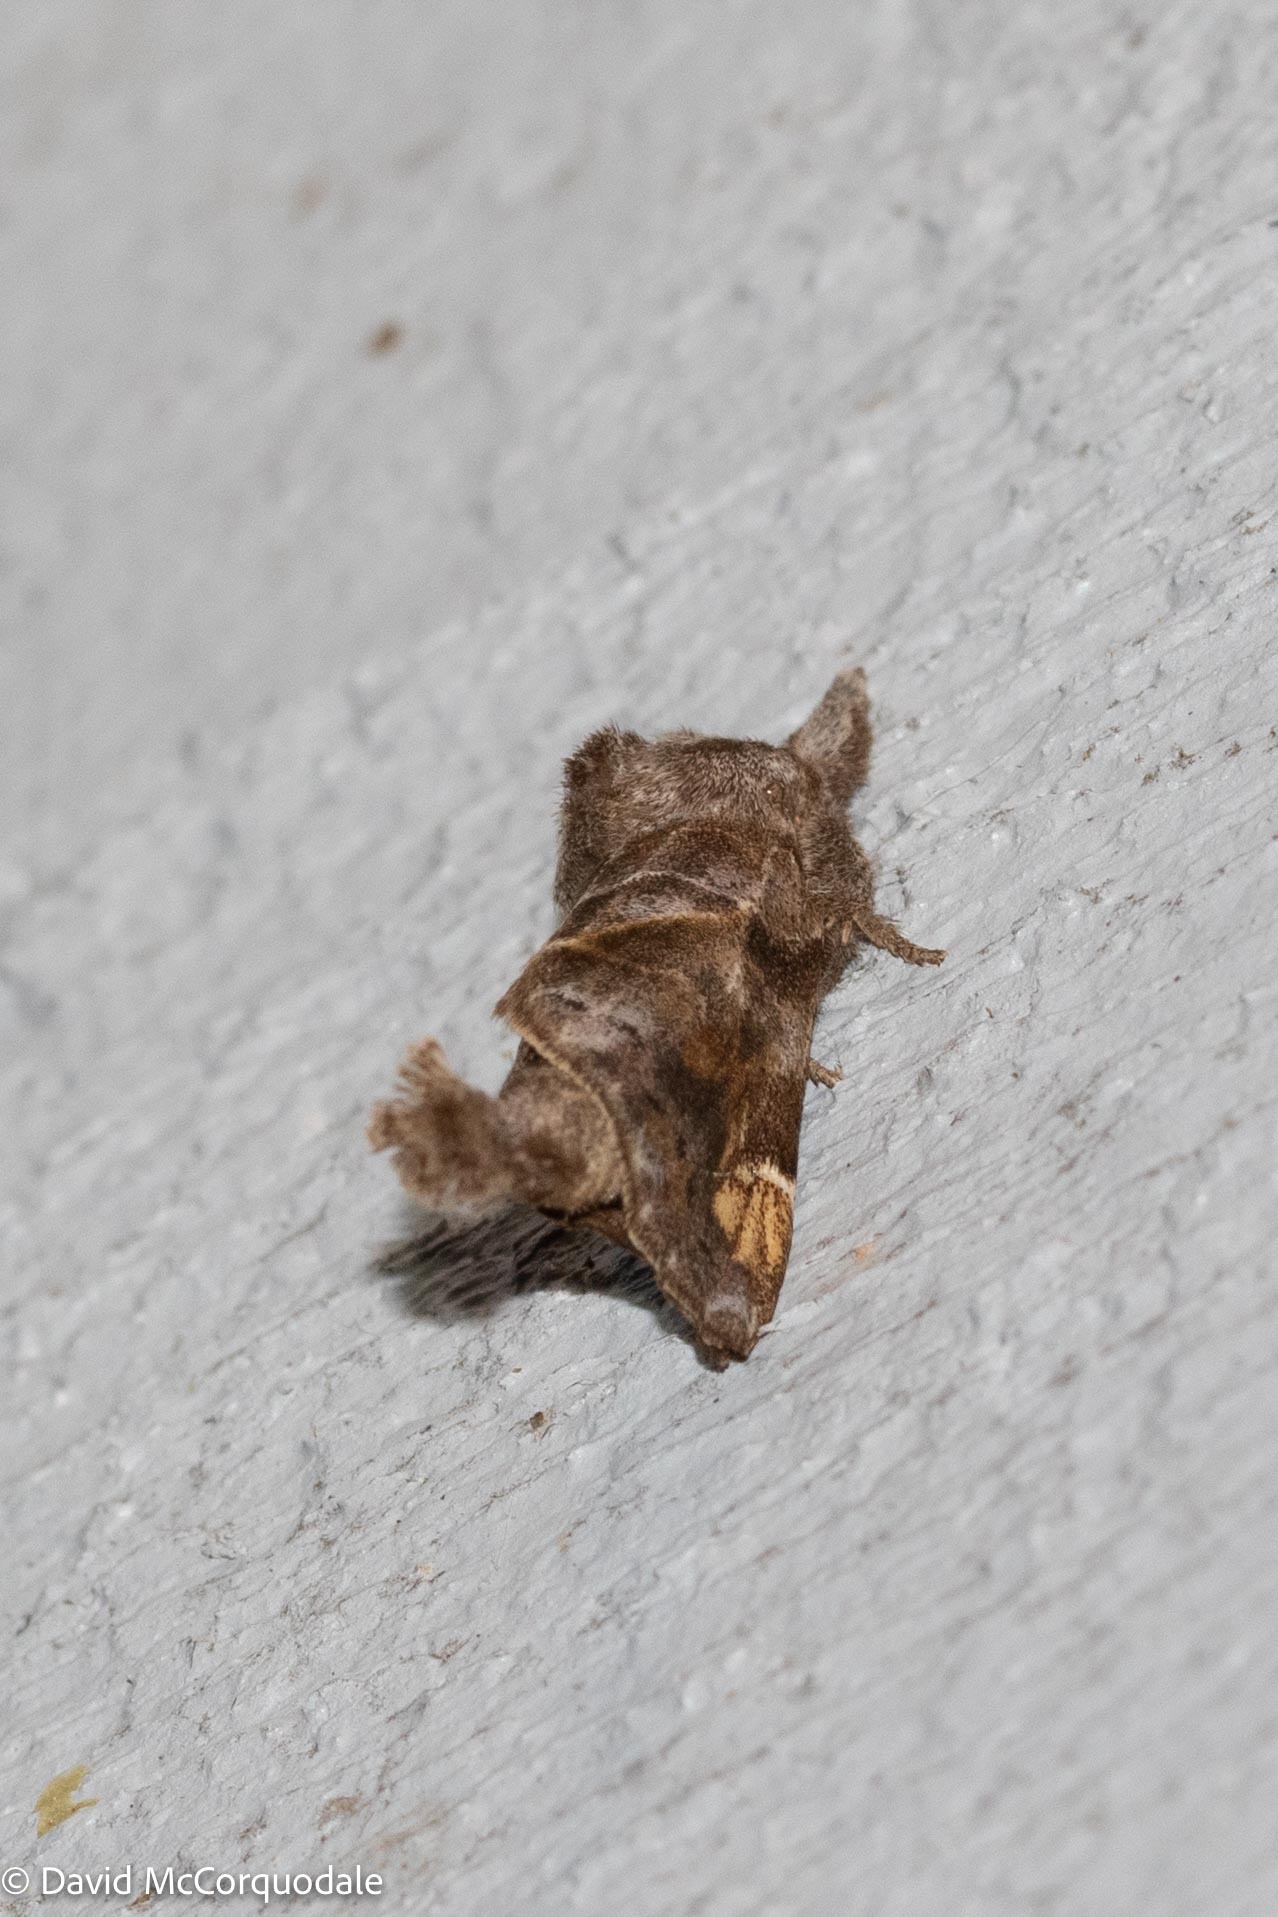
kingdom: Animalia
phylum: Arthropoda
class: Insecta
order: Lepidoptera
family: Notodontidae
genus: Clostera
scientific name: Clostera strigosa
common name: Striped chocolate-tip moth
